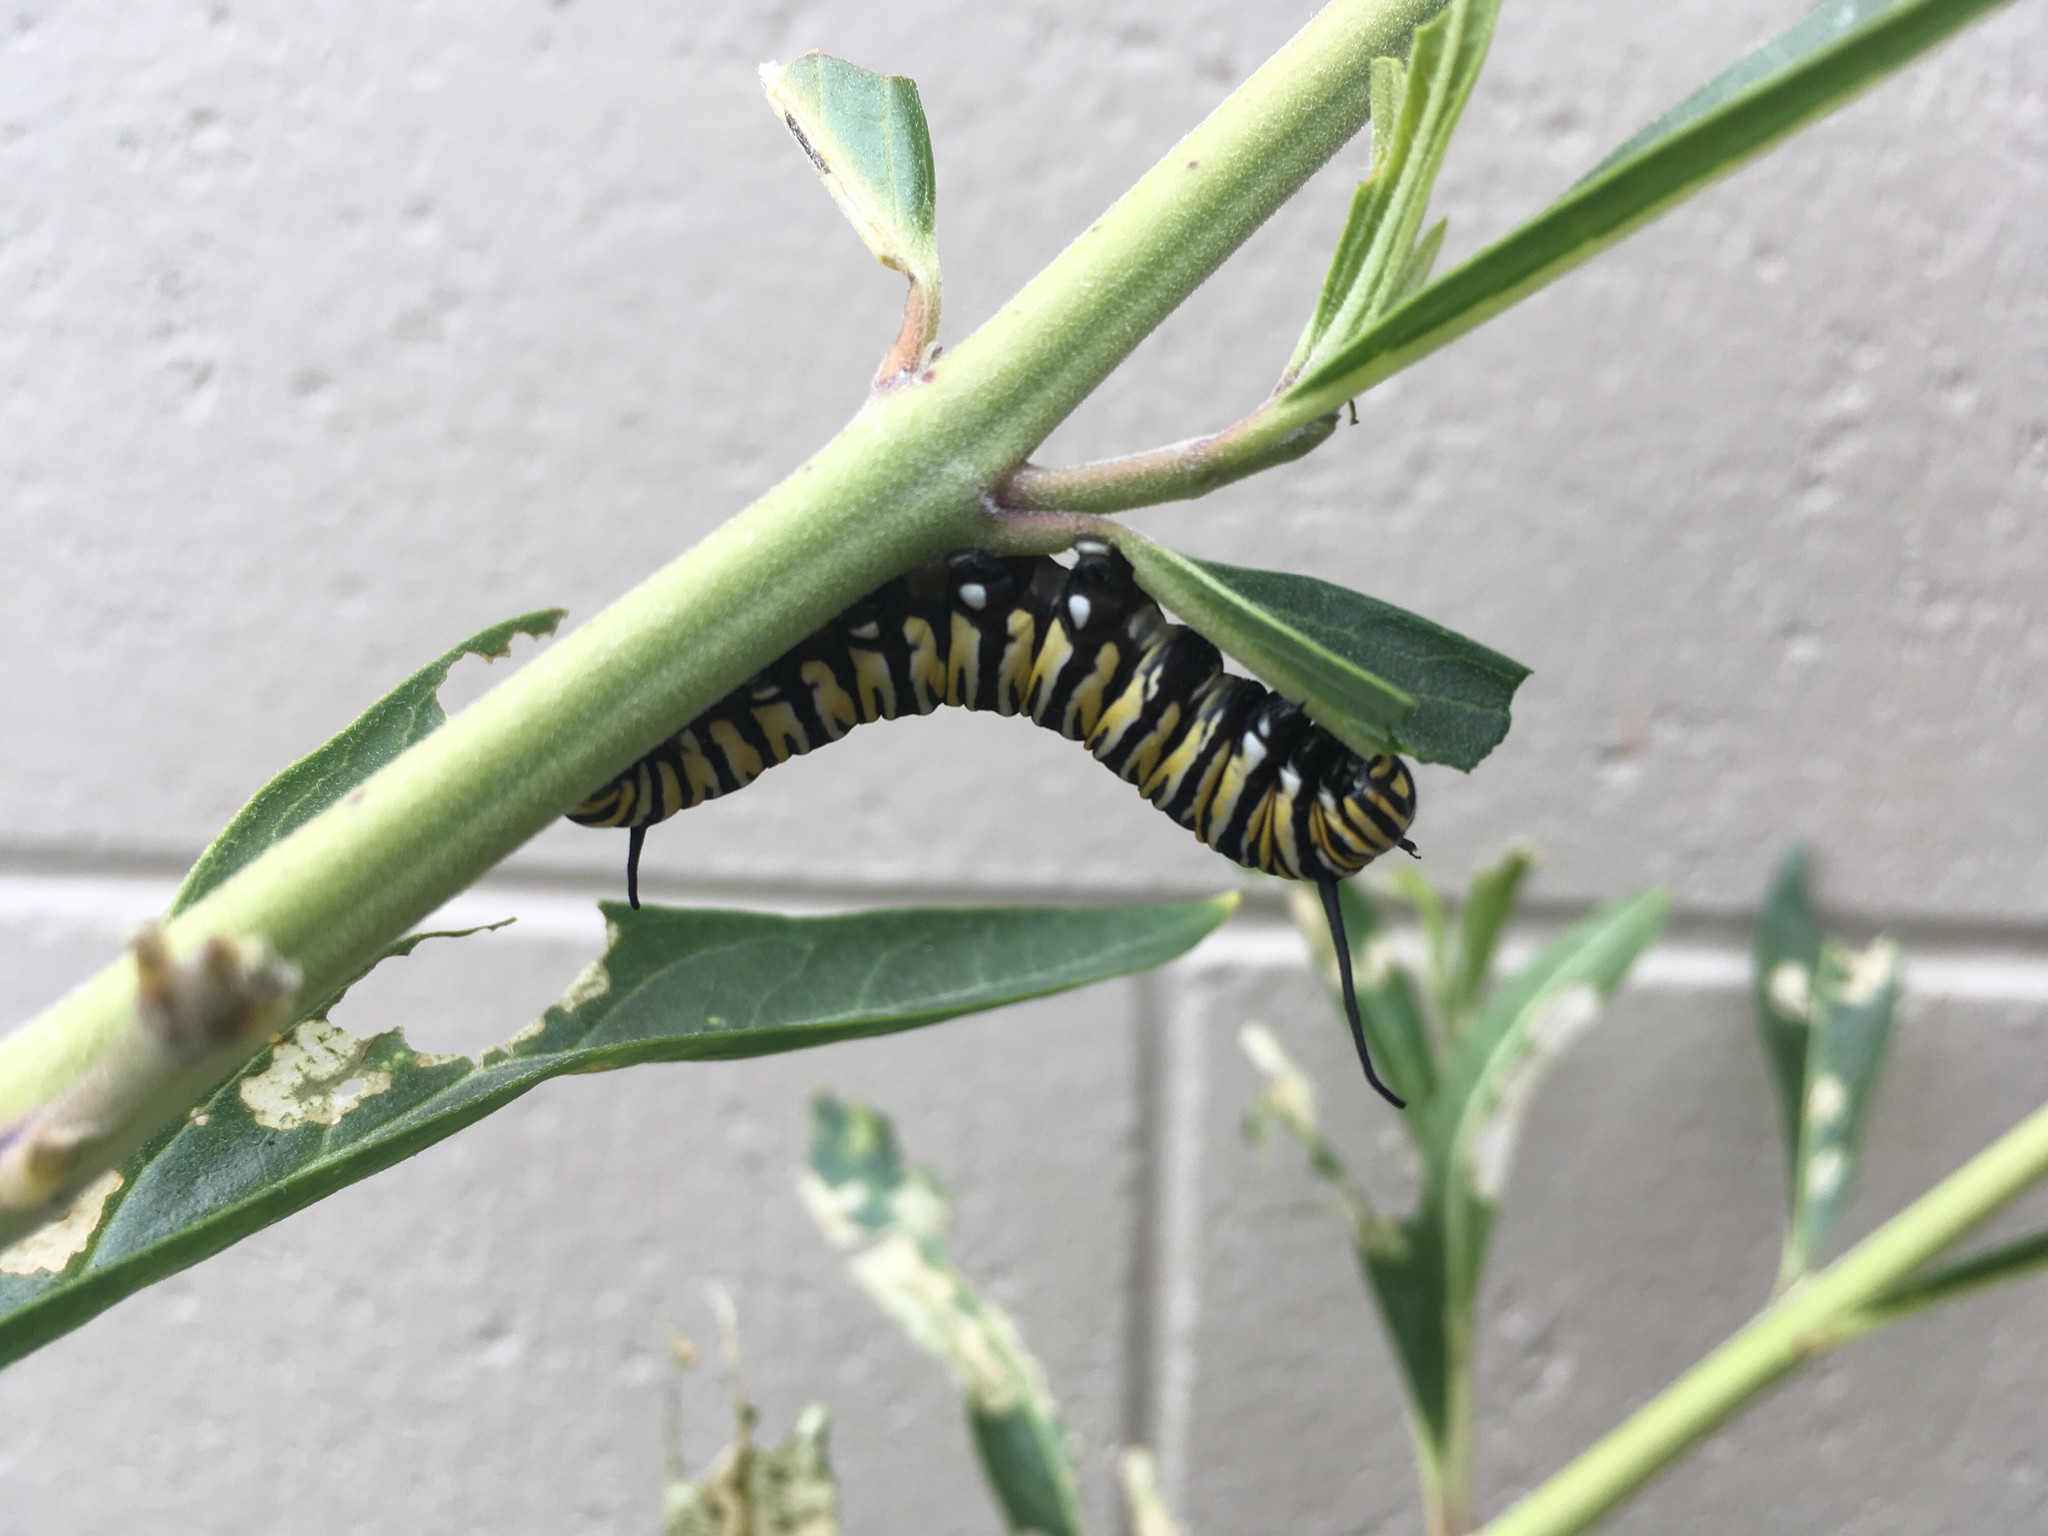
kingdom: Animalia
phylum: Arthropoda
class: Insecta
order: Lepidoptera
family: Nymphalidae
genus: Danaus
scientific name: Danaus plexippus
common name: Monarch
